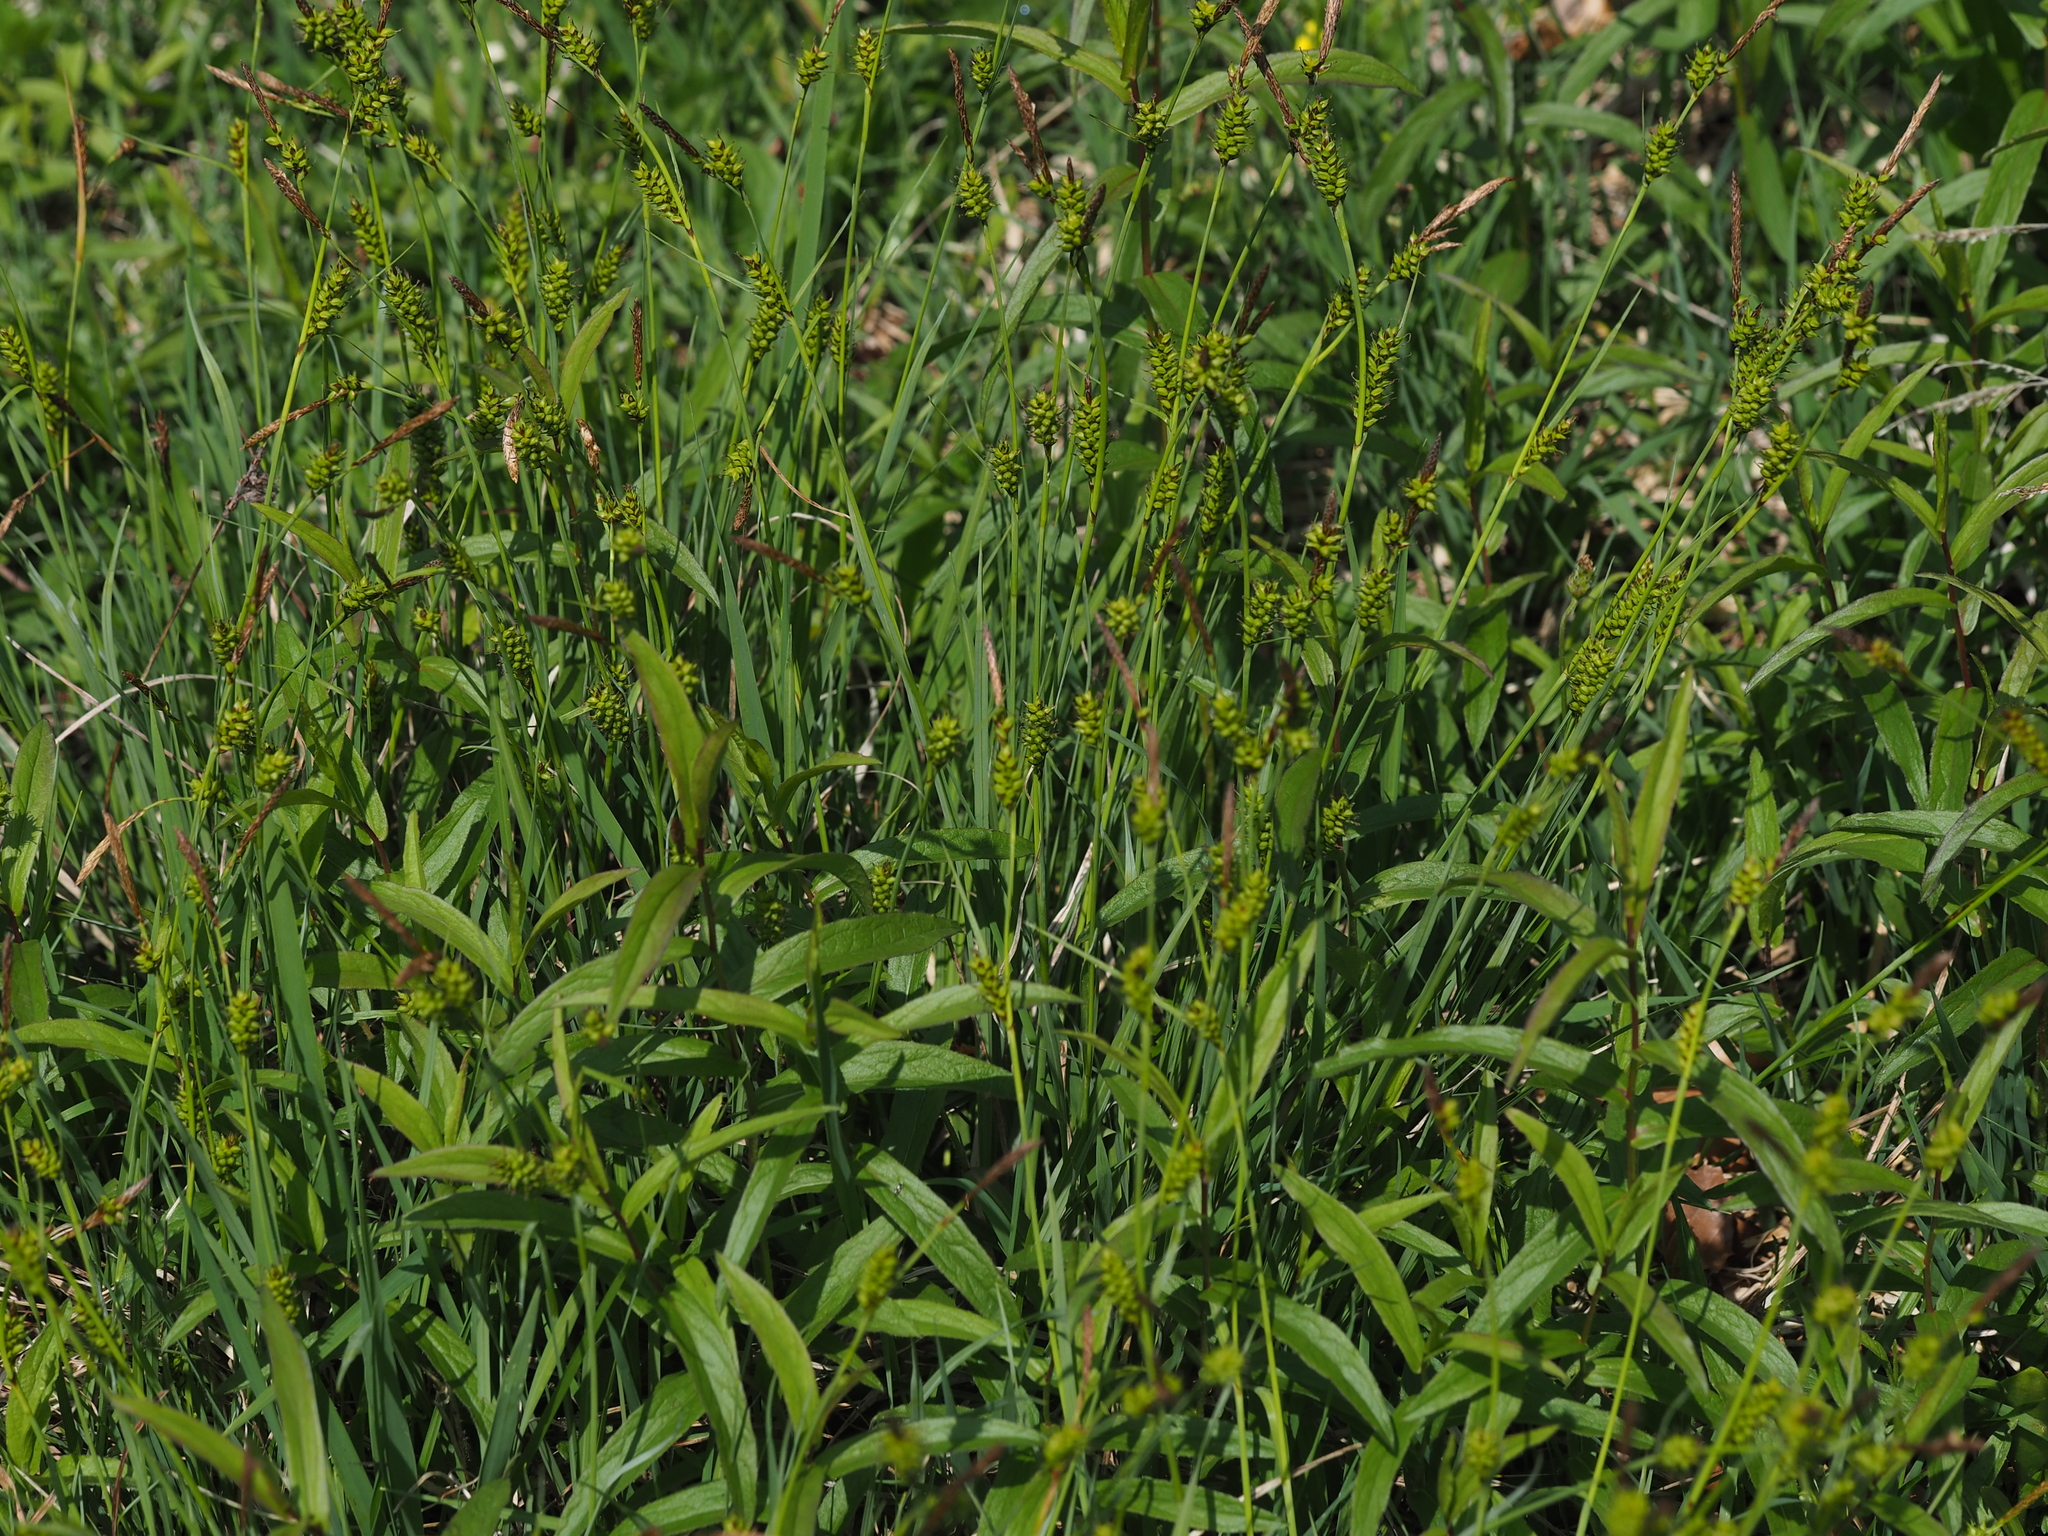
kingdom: Plantae
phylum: Tracheophyta
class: Liliopsida
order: Poales
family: Cyperaceae
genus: Carex
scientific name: Carex hostiana
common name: Tawny sedge
